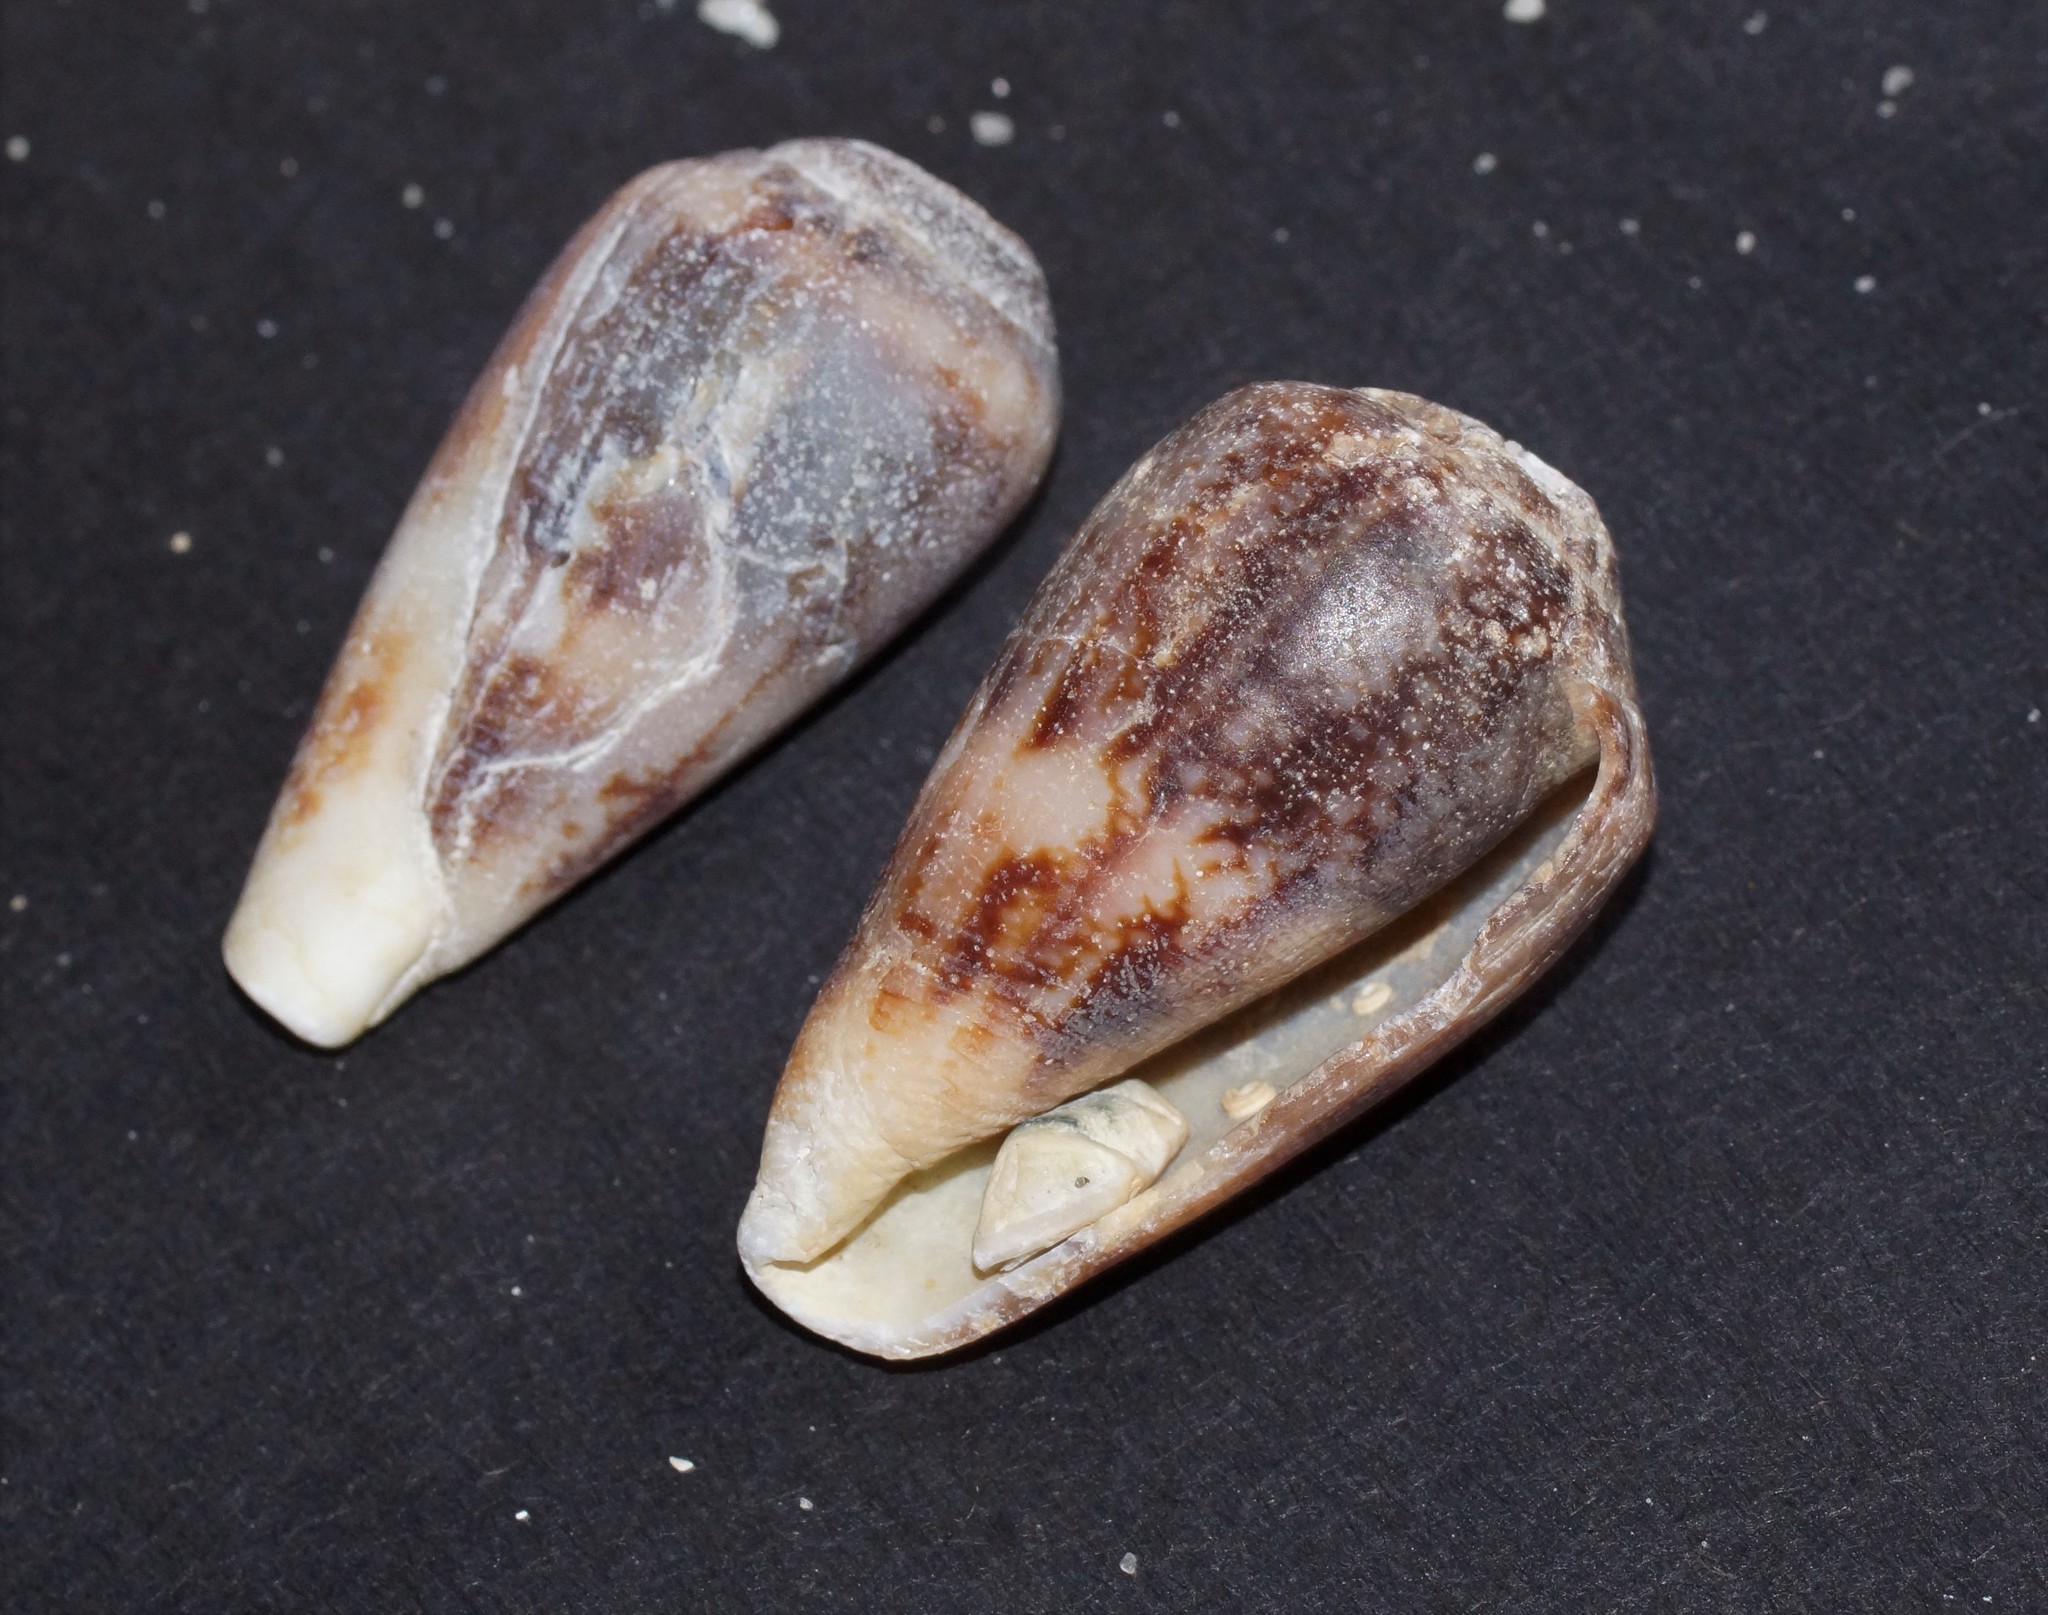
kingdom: Animalia
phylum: Mollusca
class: Gastropoda
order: Neogastropoda
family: Conidae
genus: Conus
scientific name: Conus anemone
